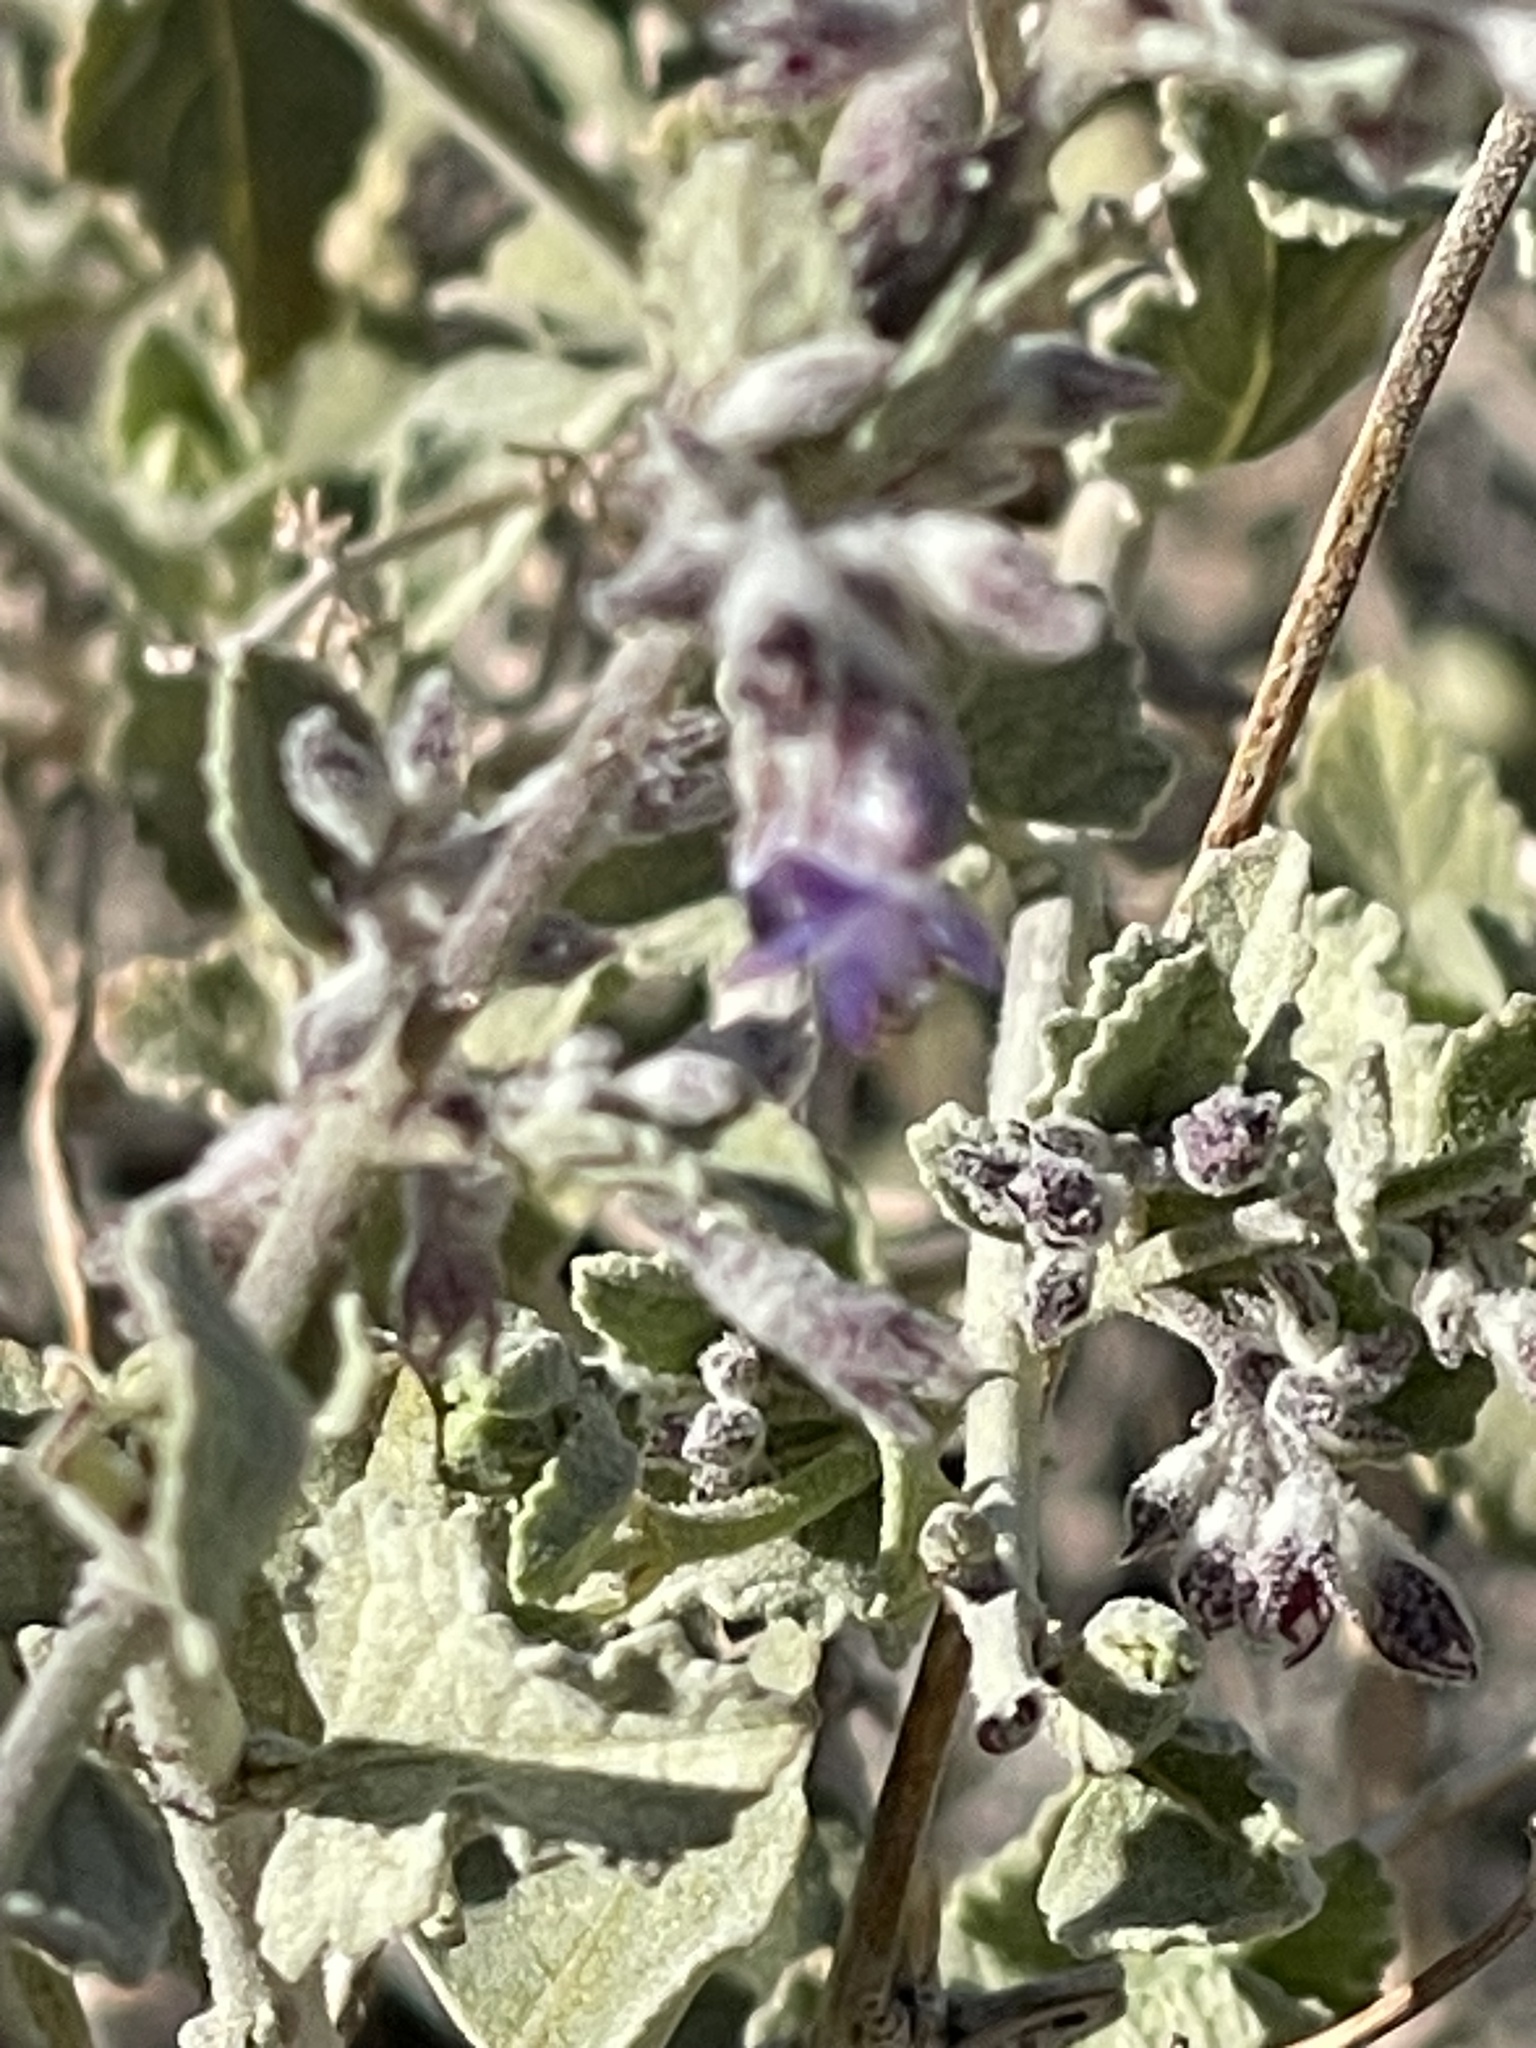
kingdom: Plantae
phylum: Tracheophyta
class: Magnoliopsida
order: Lamiales
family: Lamiaceae
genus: Condea
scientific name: Condea emoryi
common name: Chia
